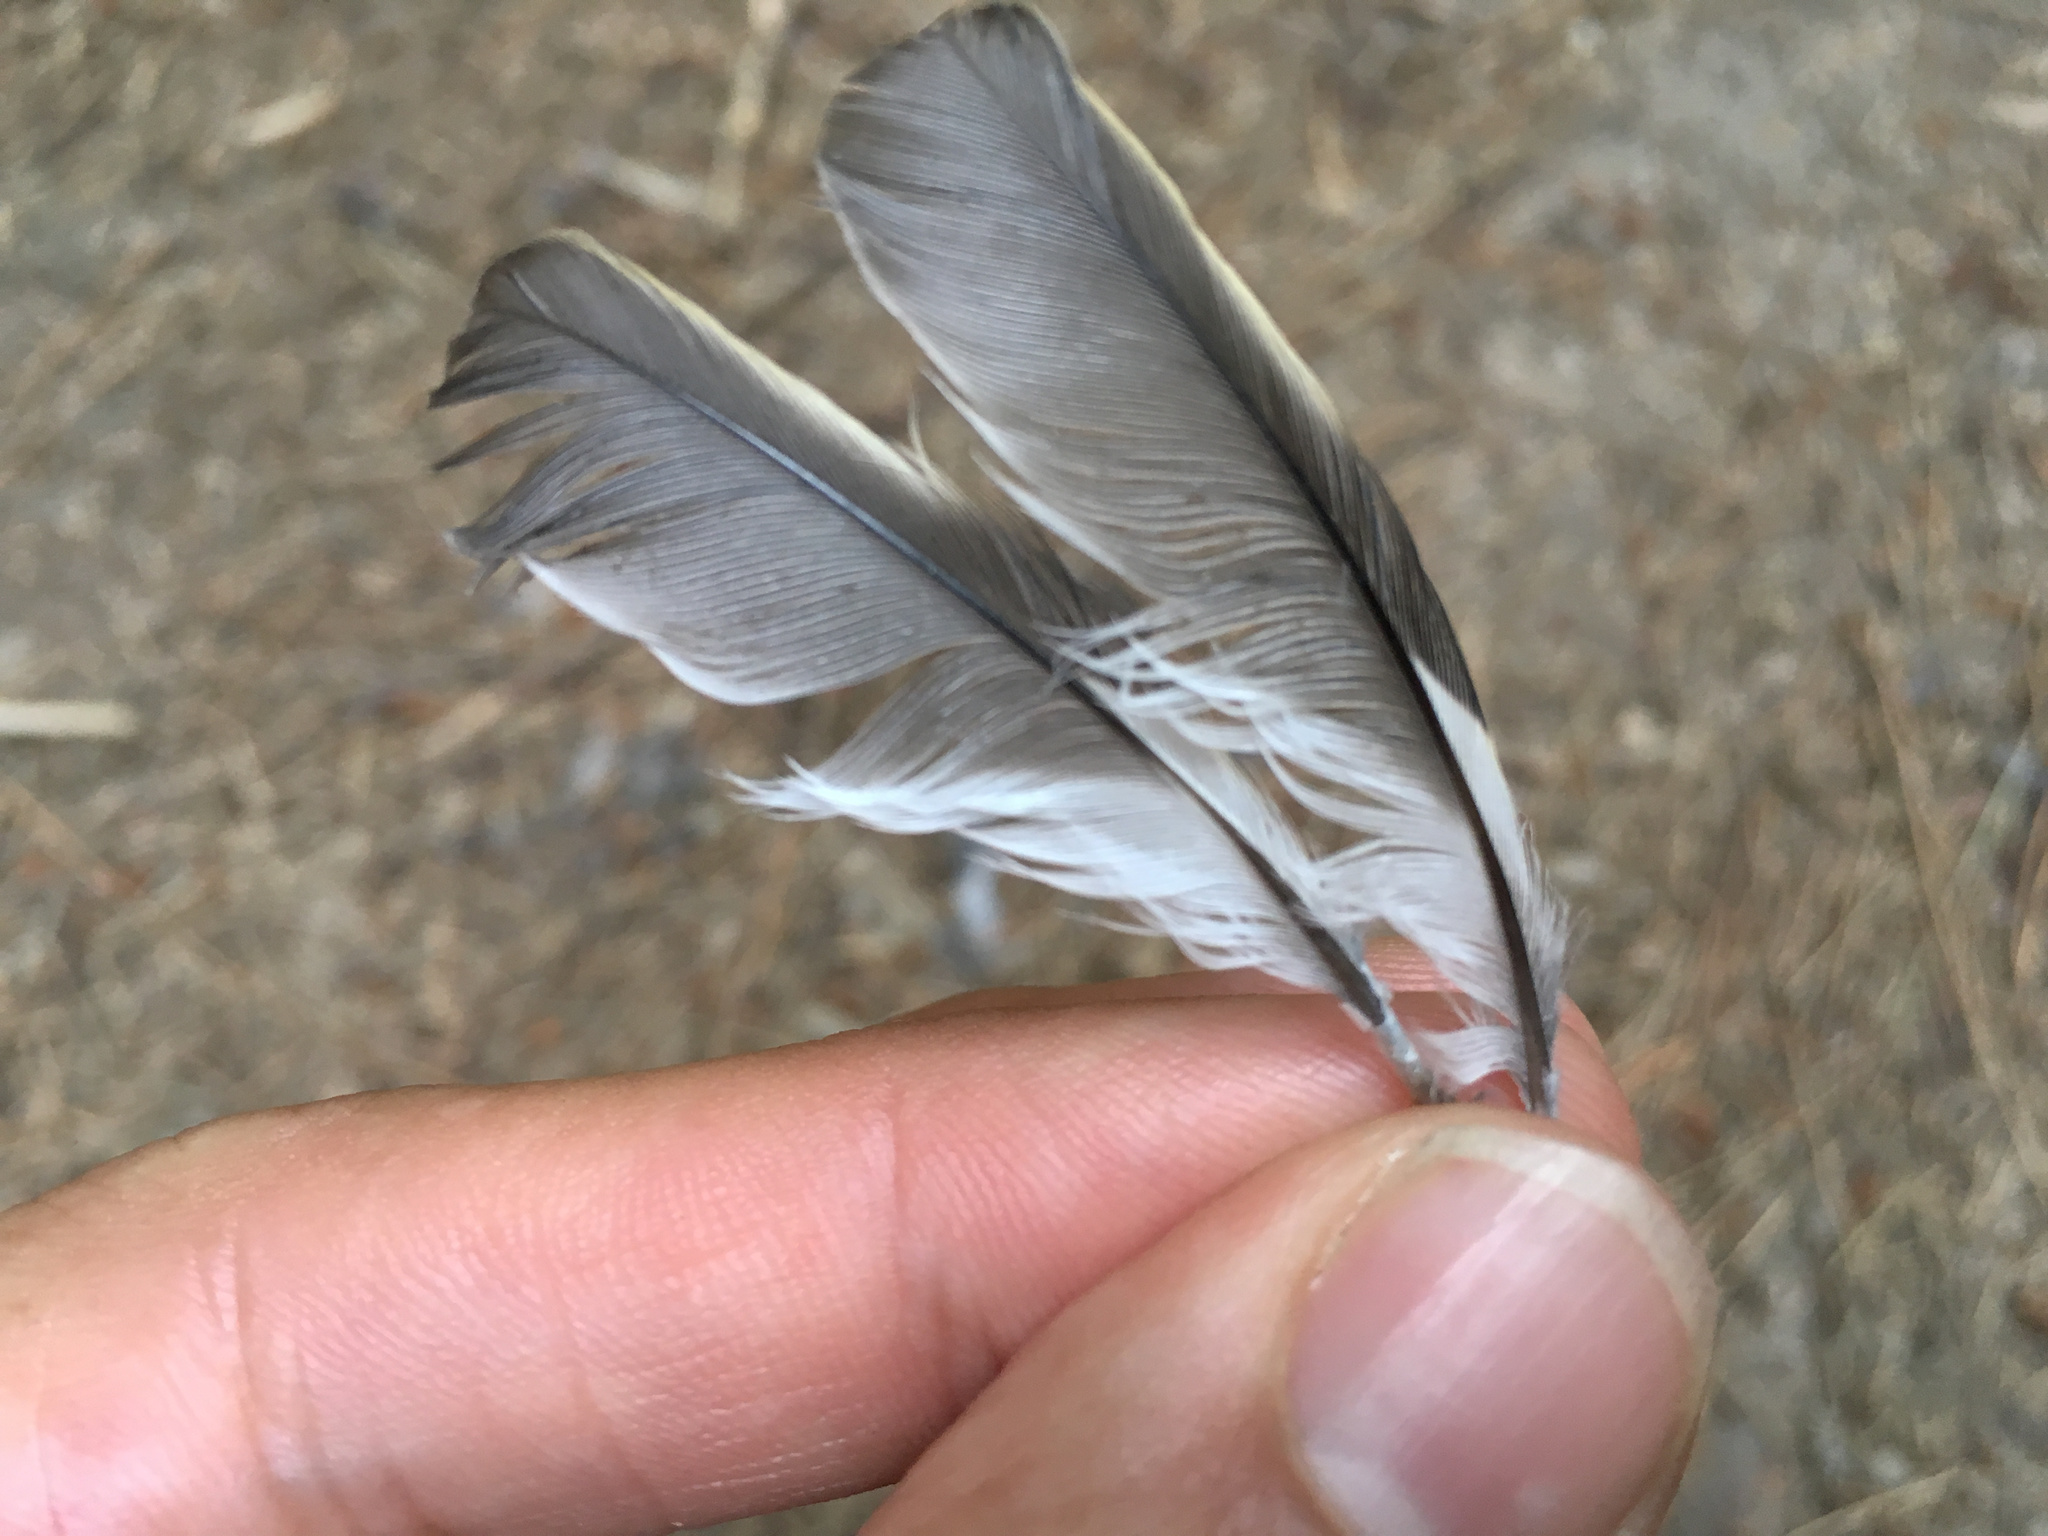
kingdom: Animalia
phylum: Chordata
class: Aves
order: Passeriformes
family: Fringillidae
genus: Fringilla
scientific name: Fringilla coelebs
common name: Common chaffinch
